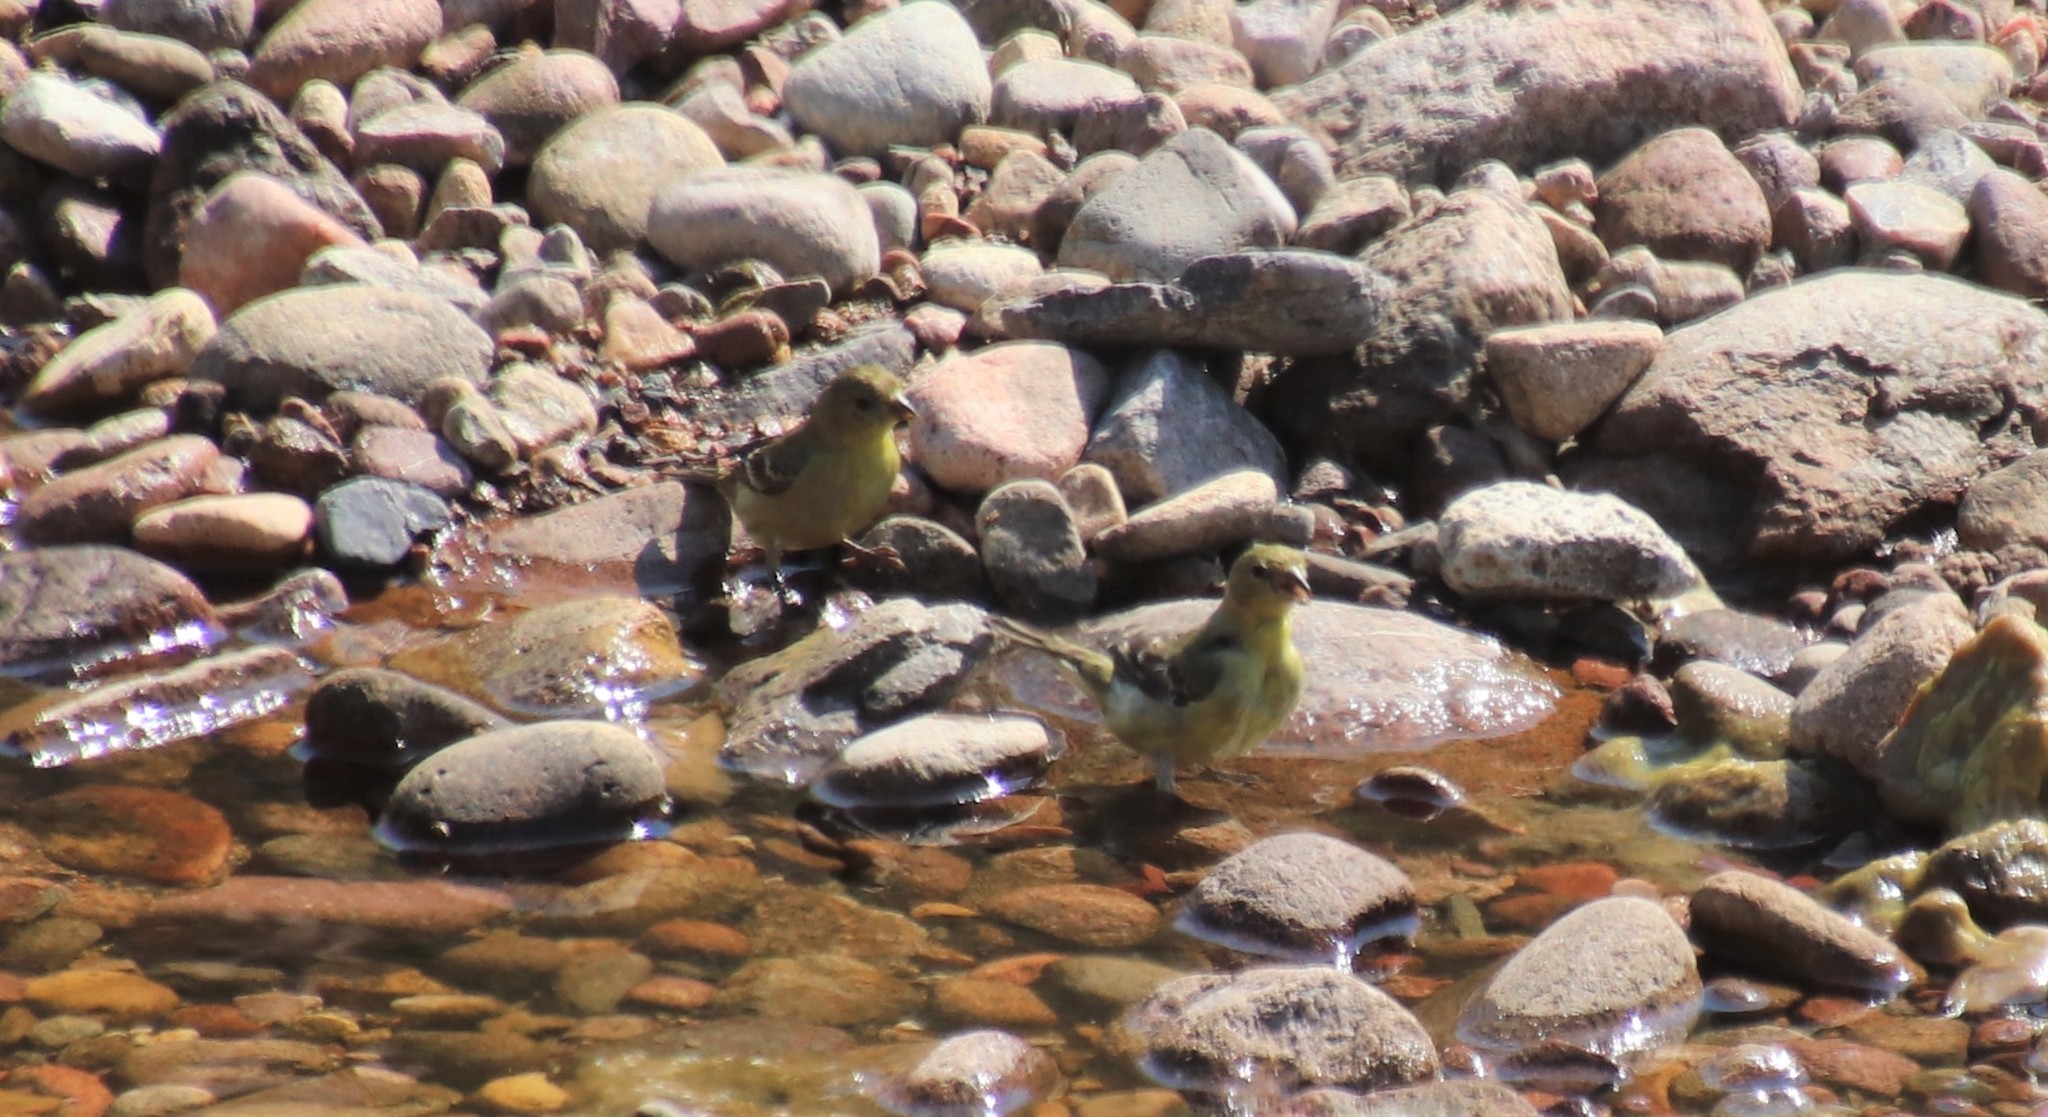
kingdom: Animalia
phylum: Chordata
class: Aves
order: Passeriformes
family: Fringillidae
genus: Spinus
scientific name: Spinus psaltria
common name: Lesser goldfinch
